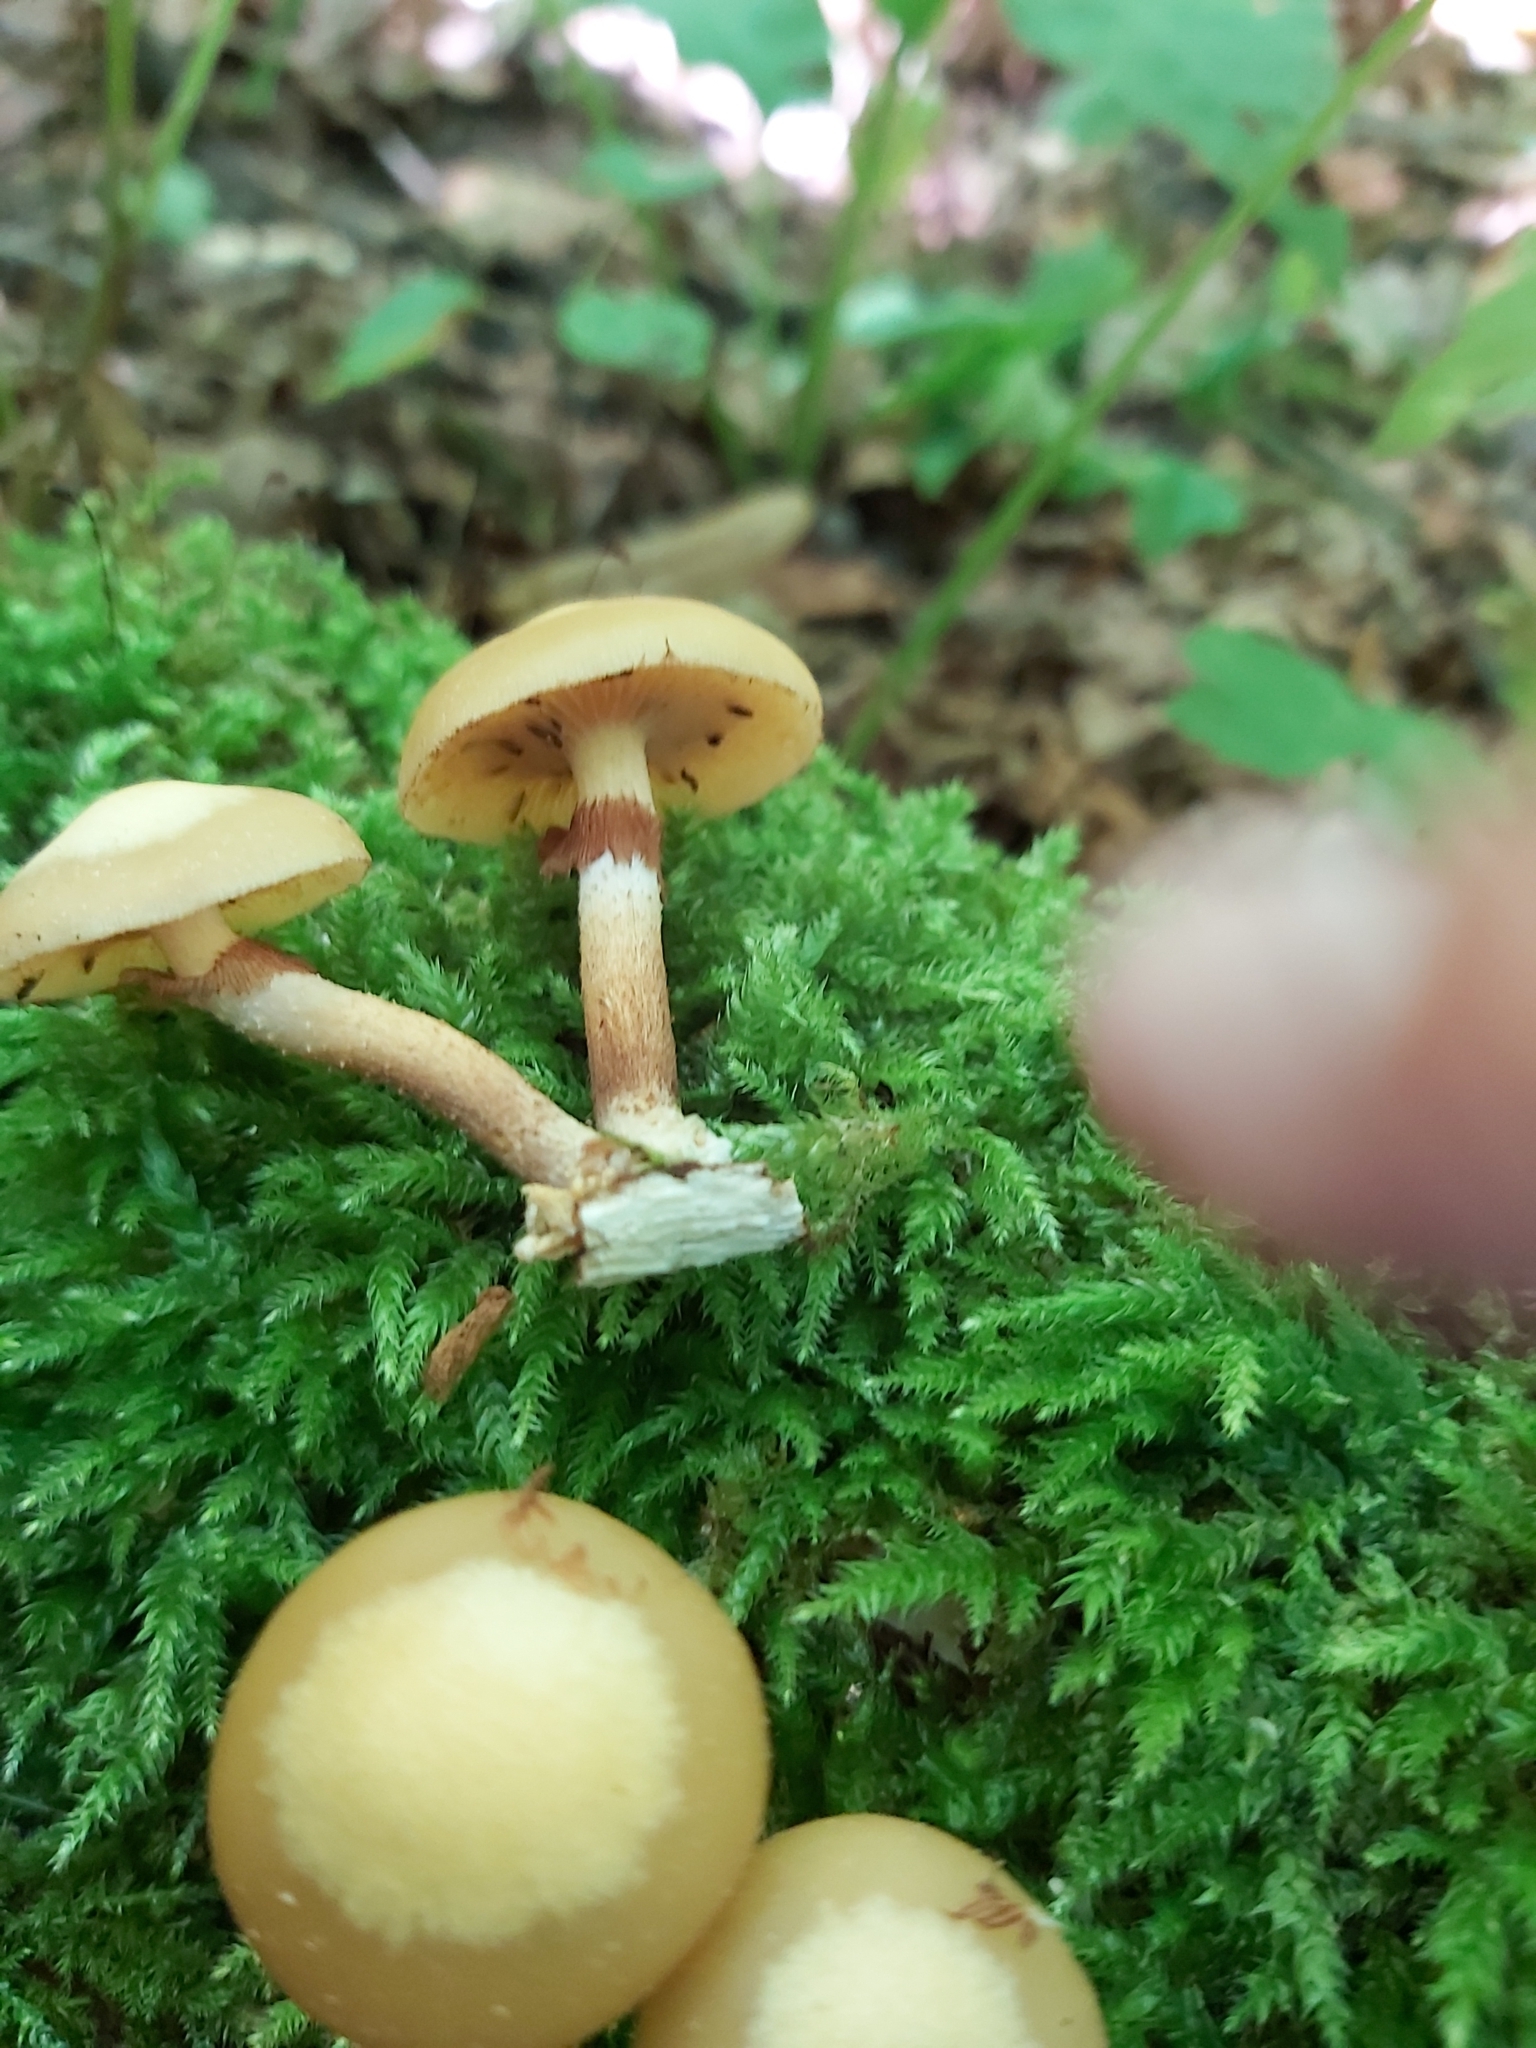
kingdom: Fungi
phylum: Basidiomycota
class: Agaricomycetes
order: Agaricales
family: Strophariaceae
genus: Kuehneromyces
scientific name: Kuehneromyces mutabilis
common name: Sheathed woodtuft
